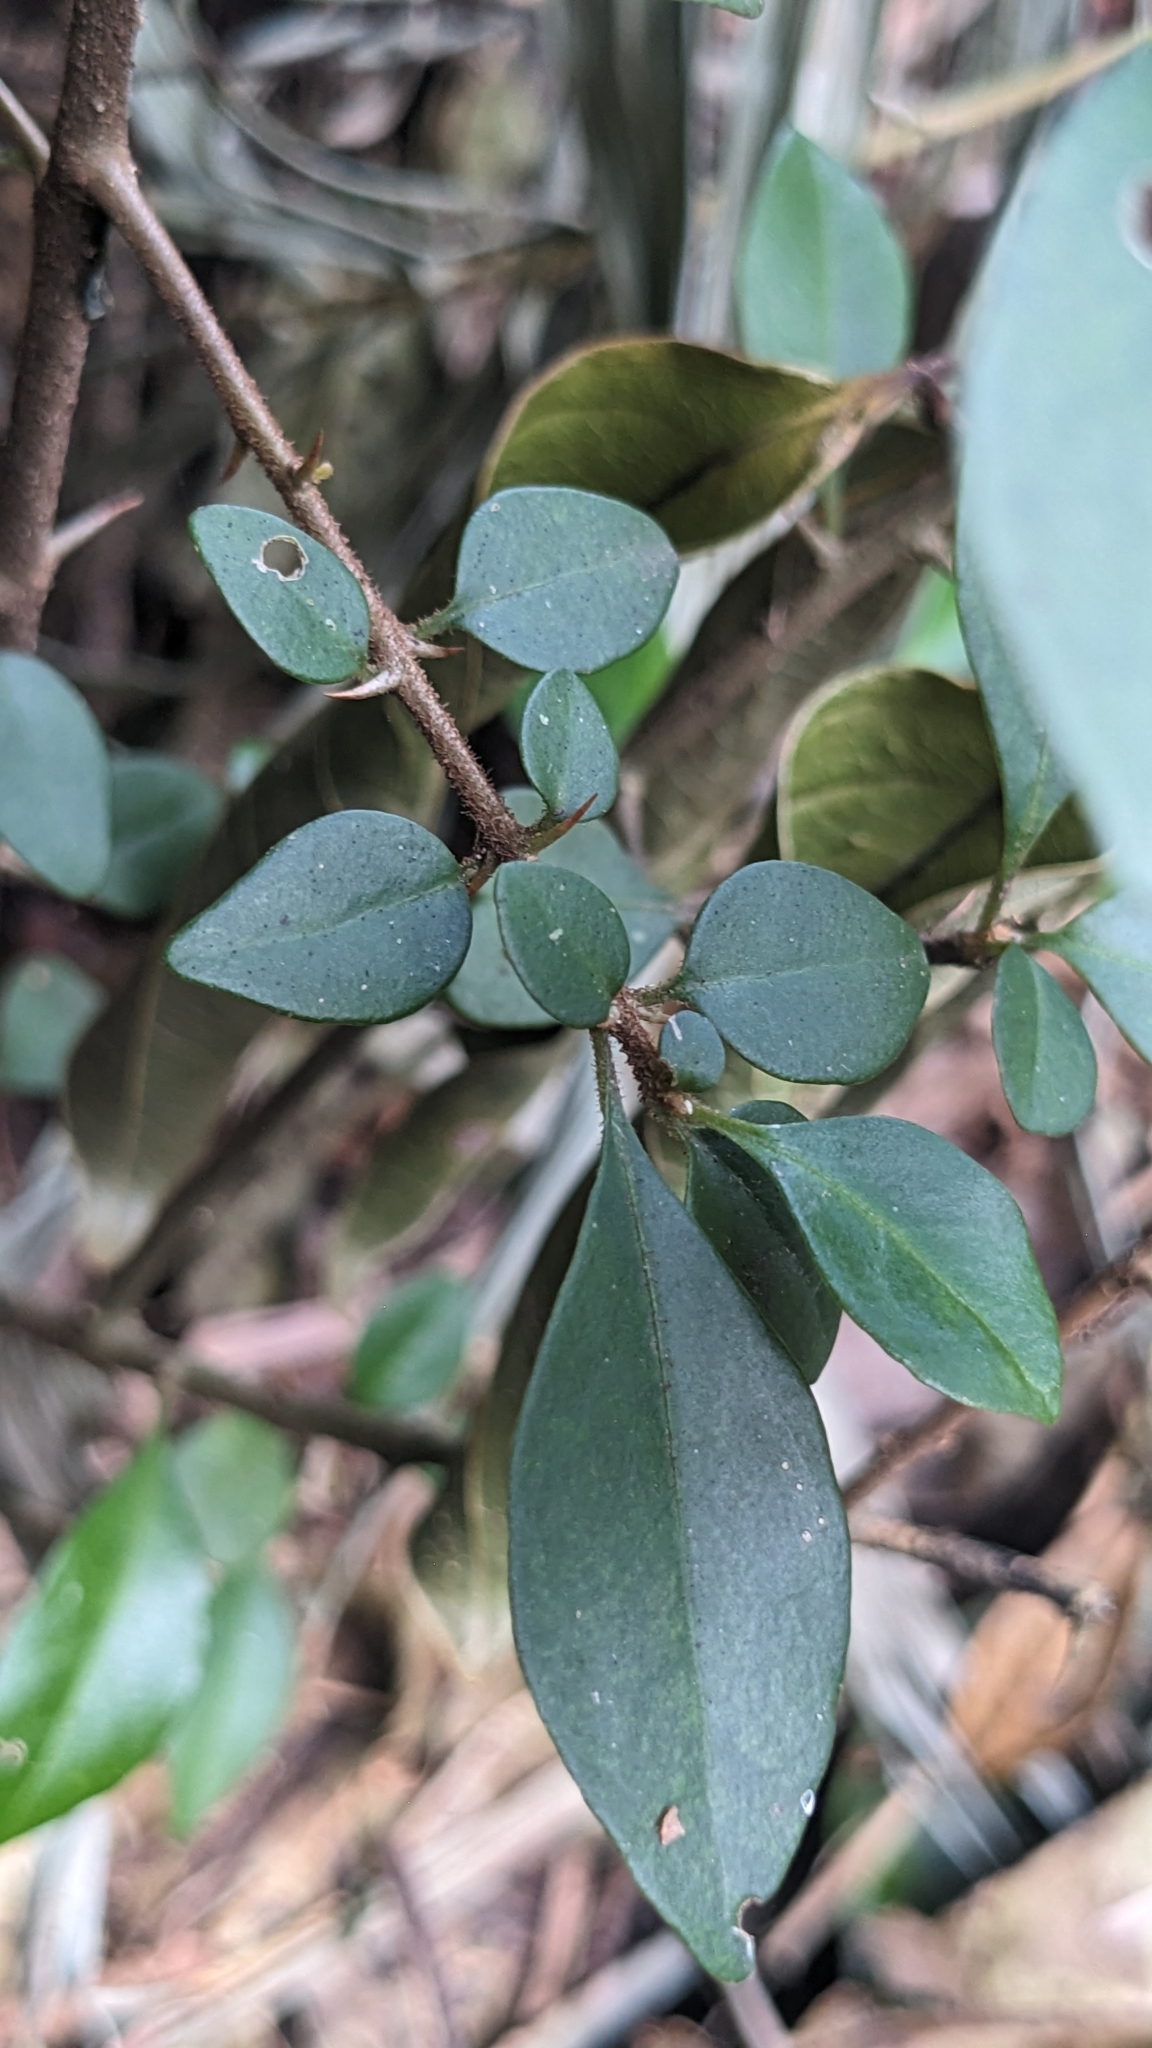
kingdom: Plantae
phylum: Tracheophyta
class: Magnoliopsida
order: Caryophyllales
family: Nyctaginaceae
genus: Pisonia
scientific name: Pisonia aculeata
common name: Cockspur vine
